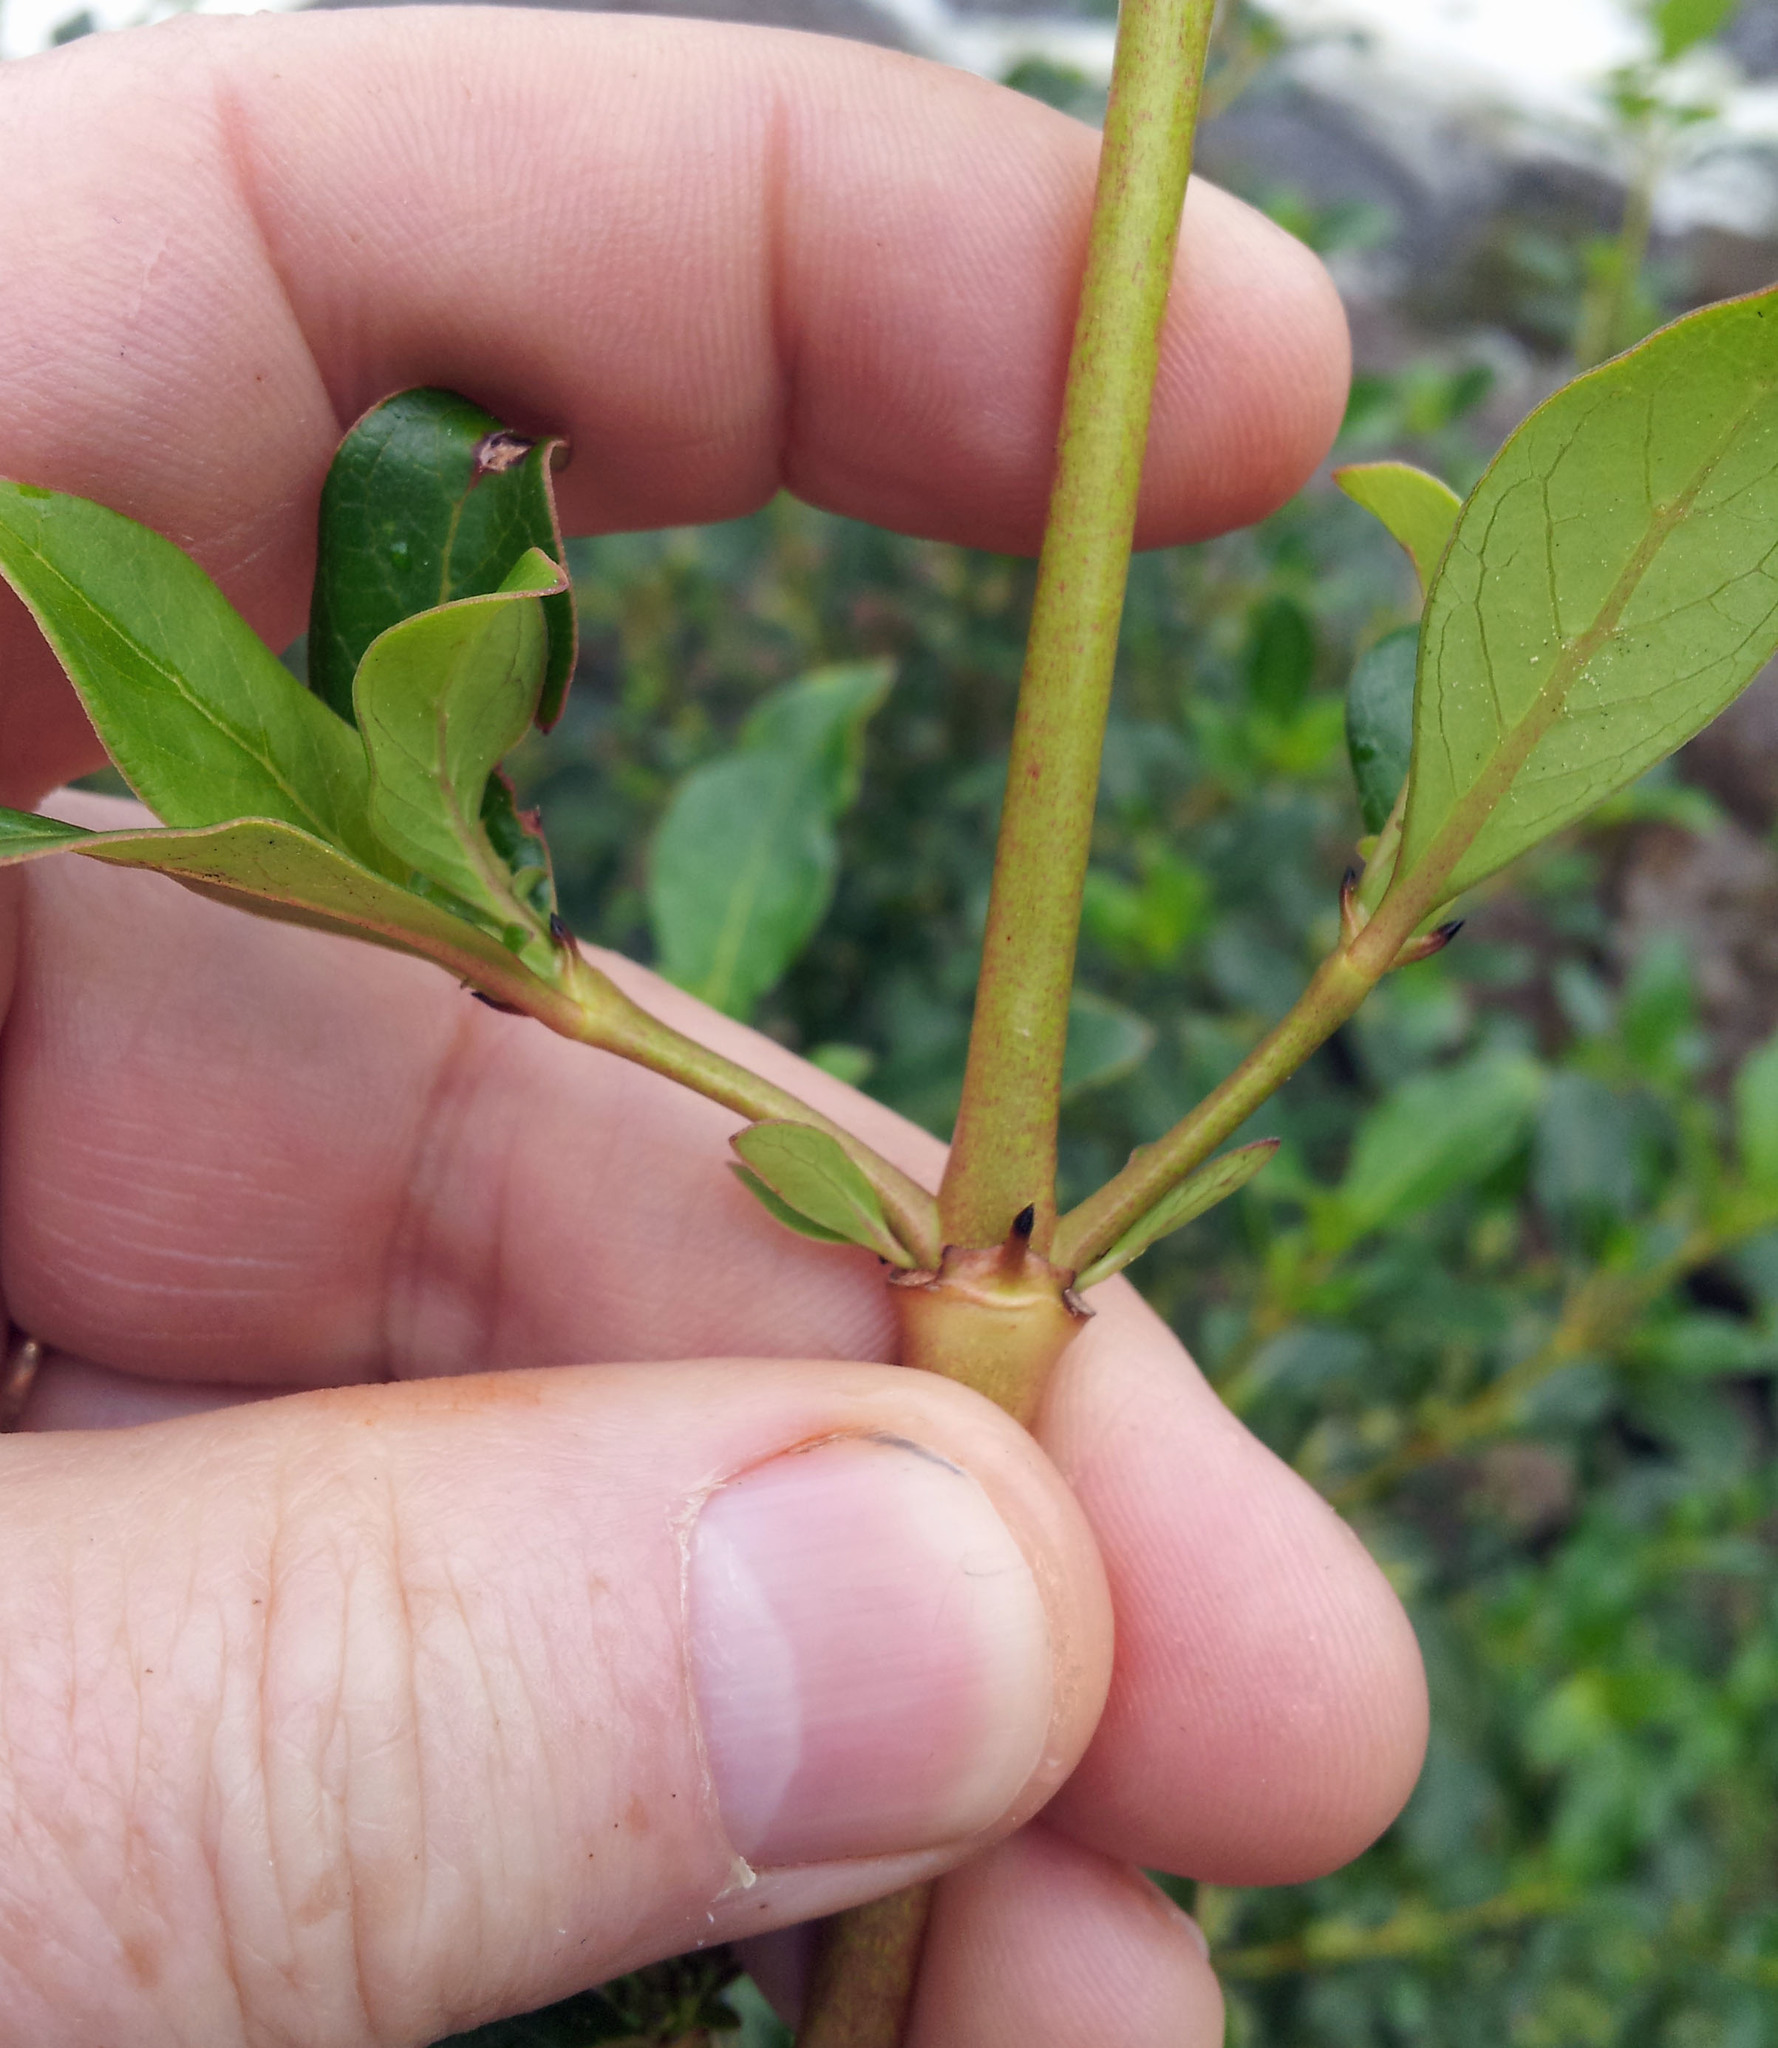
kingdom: Plantae
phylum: Tracheophyta
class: Magnoliopsida
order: Gentianales
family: Rubiaceae
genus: Coprosma
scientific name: Coprosma robusta
